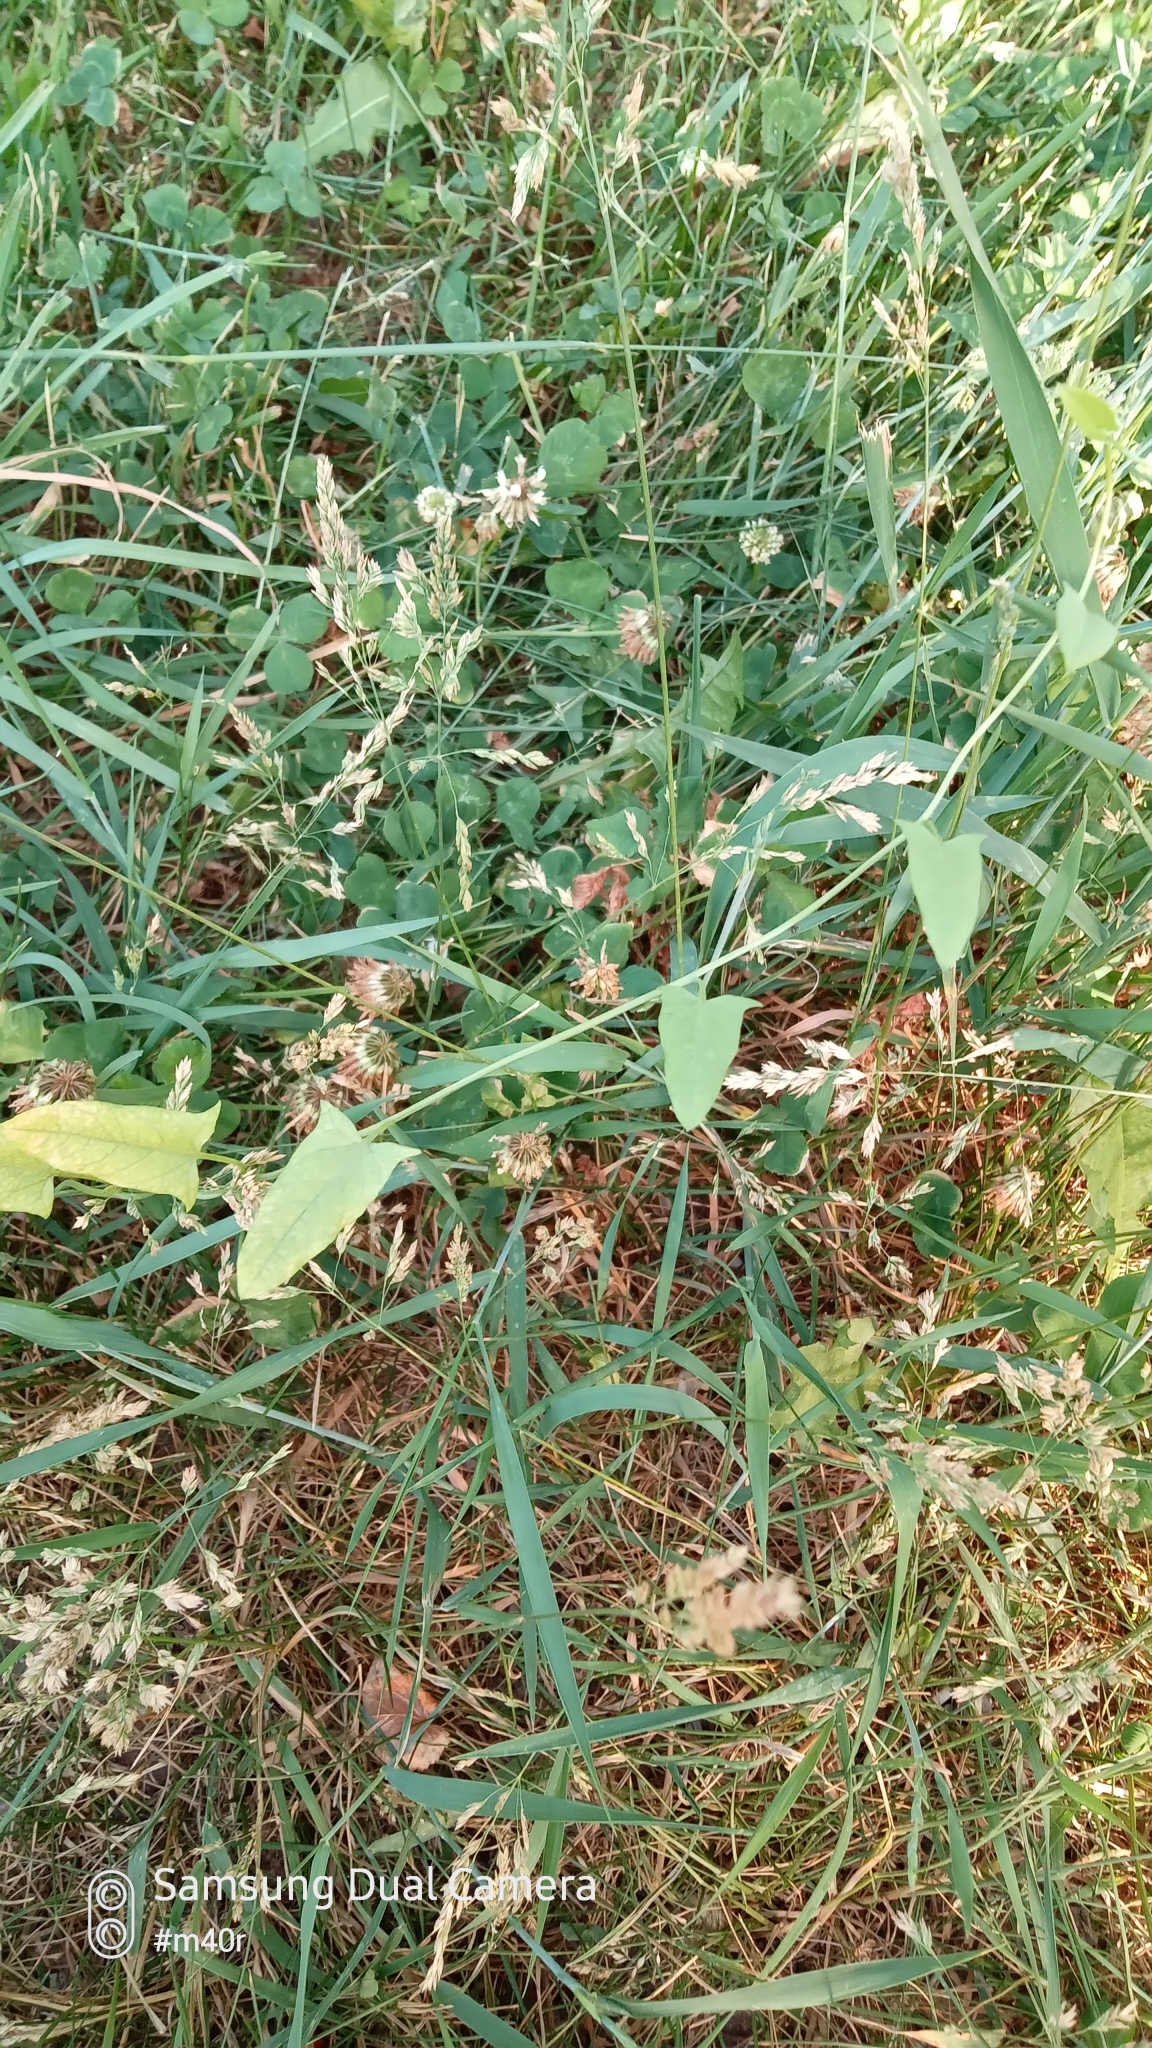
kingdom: Plantae
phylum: Tracheophyta
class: Magnoliopsida
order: Solanales
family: Convolvulaceae
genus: Convolvulus
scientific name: Convolvulus arvensis
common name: Field bindweed
